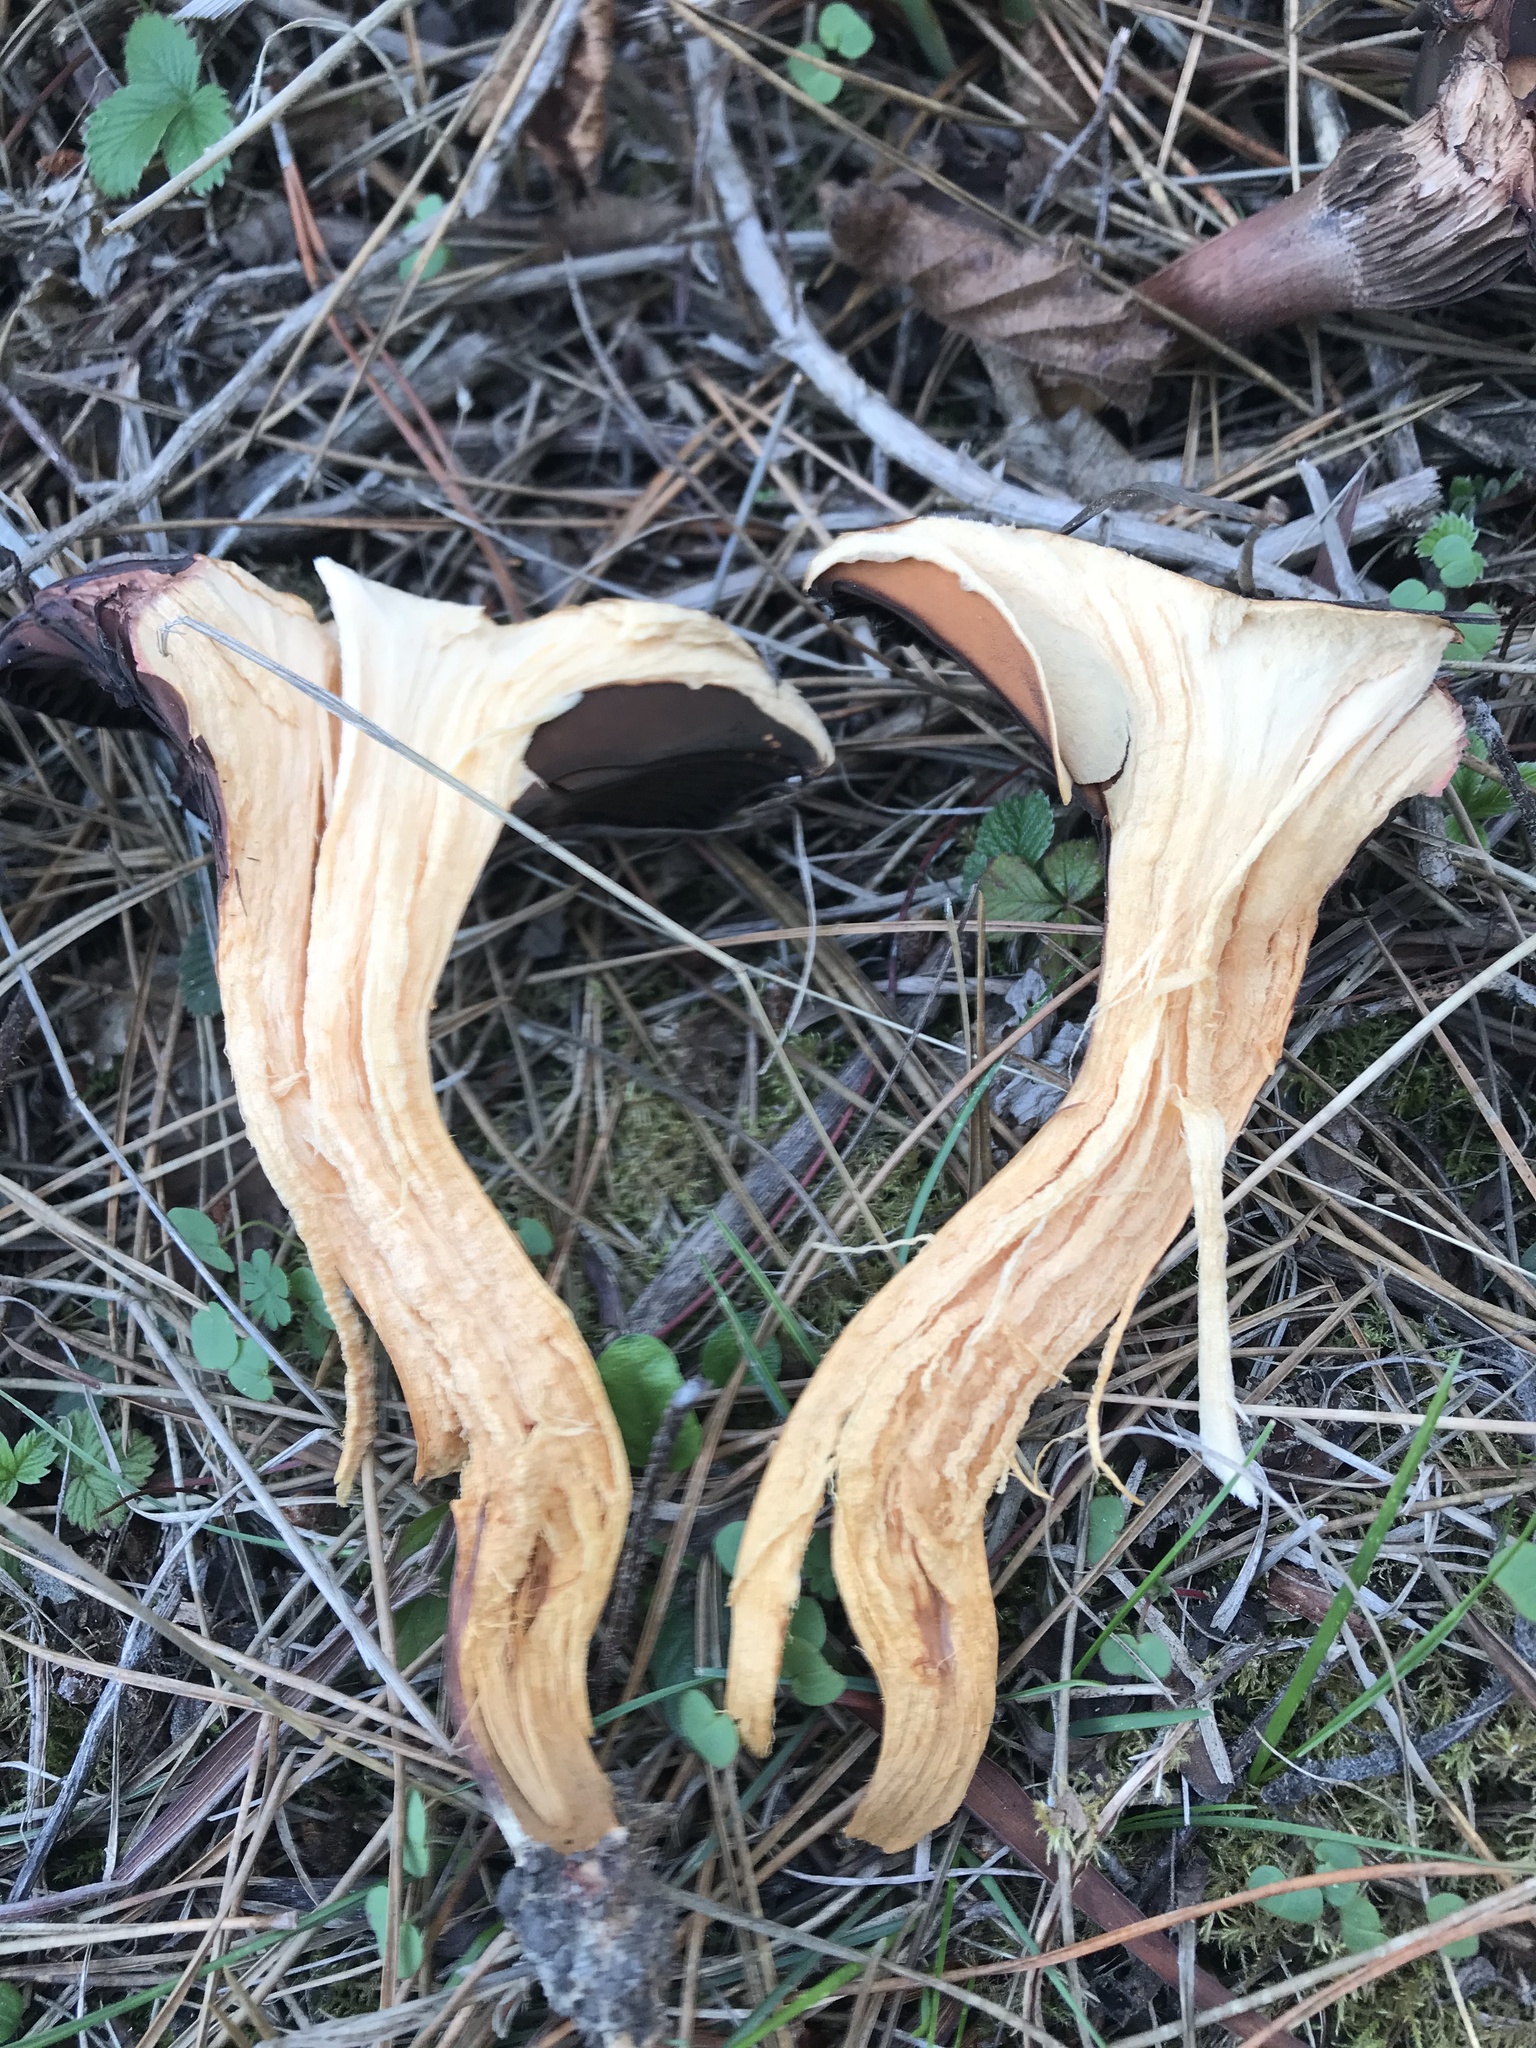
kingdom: Fungi
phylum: Basidiomycota
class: Agaricomycetes
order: Boletales
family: Gomphidiaceae
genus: Chroogomphus
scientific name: Chroogomphus vinicolor
